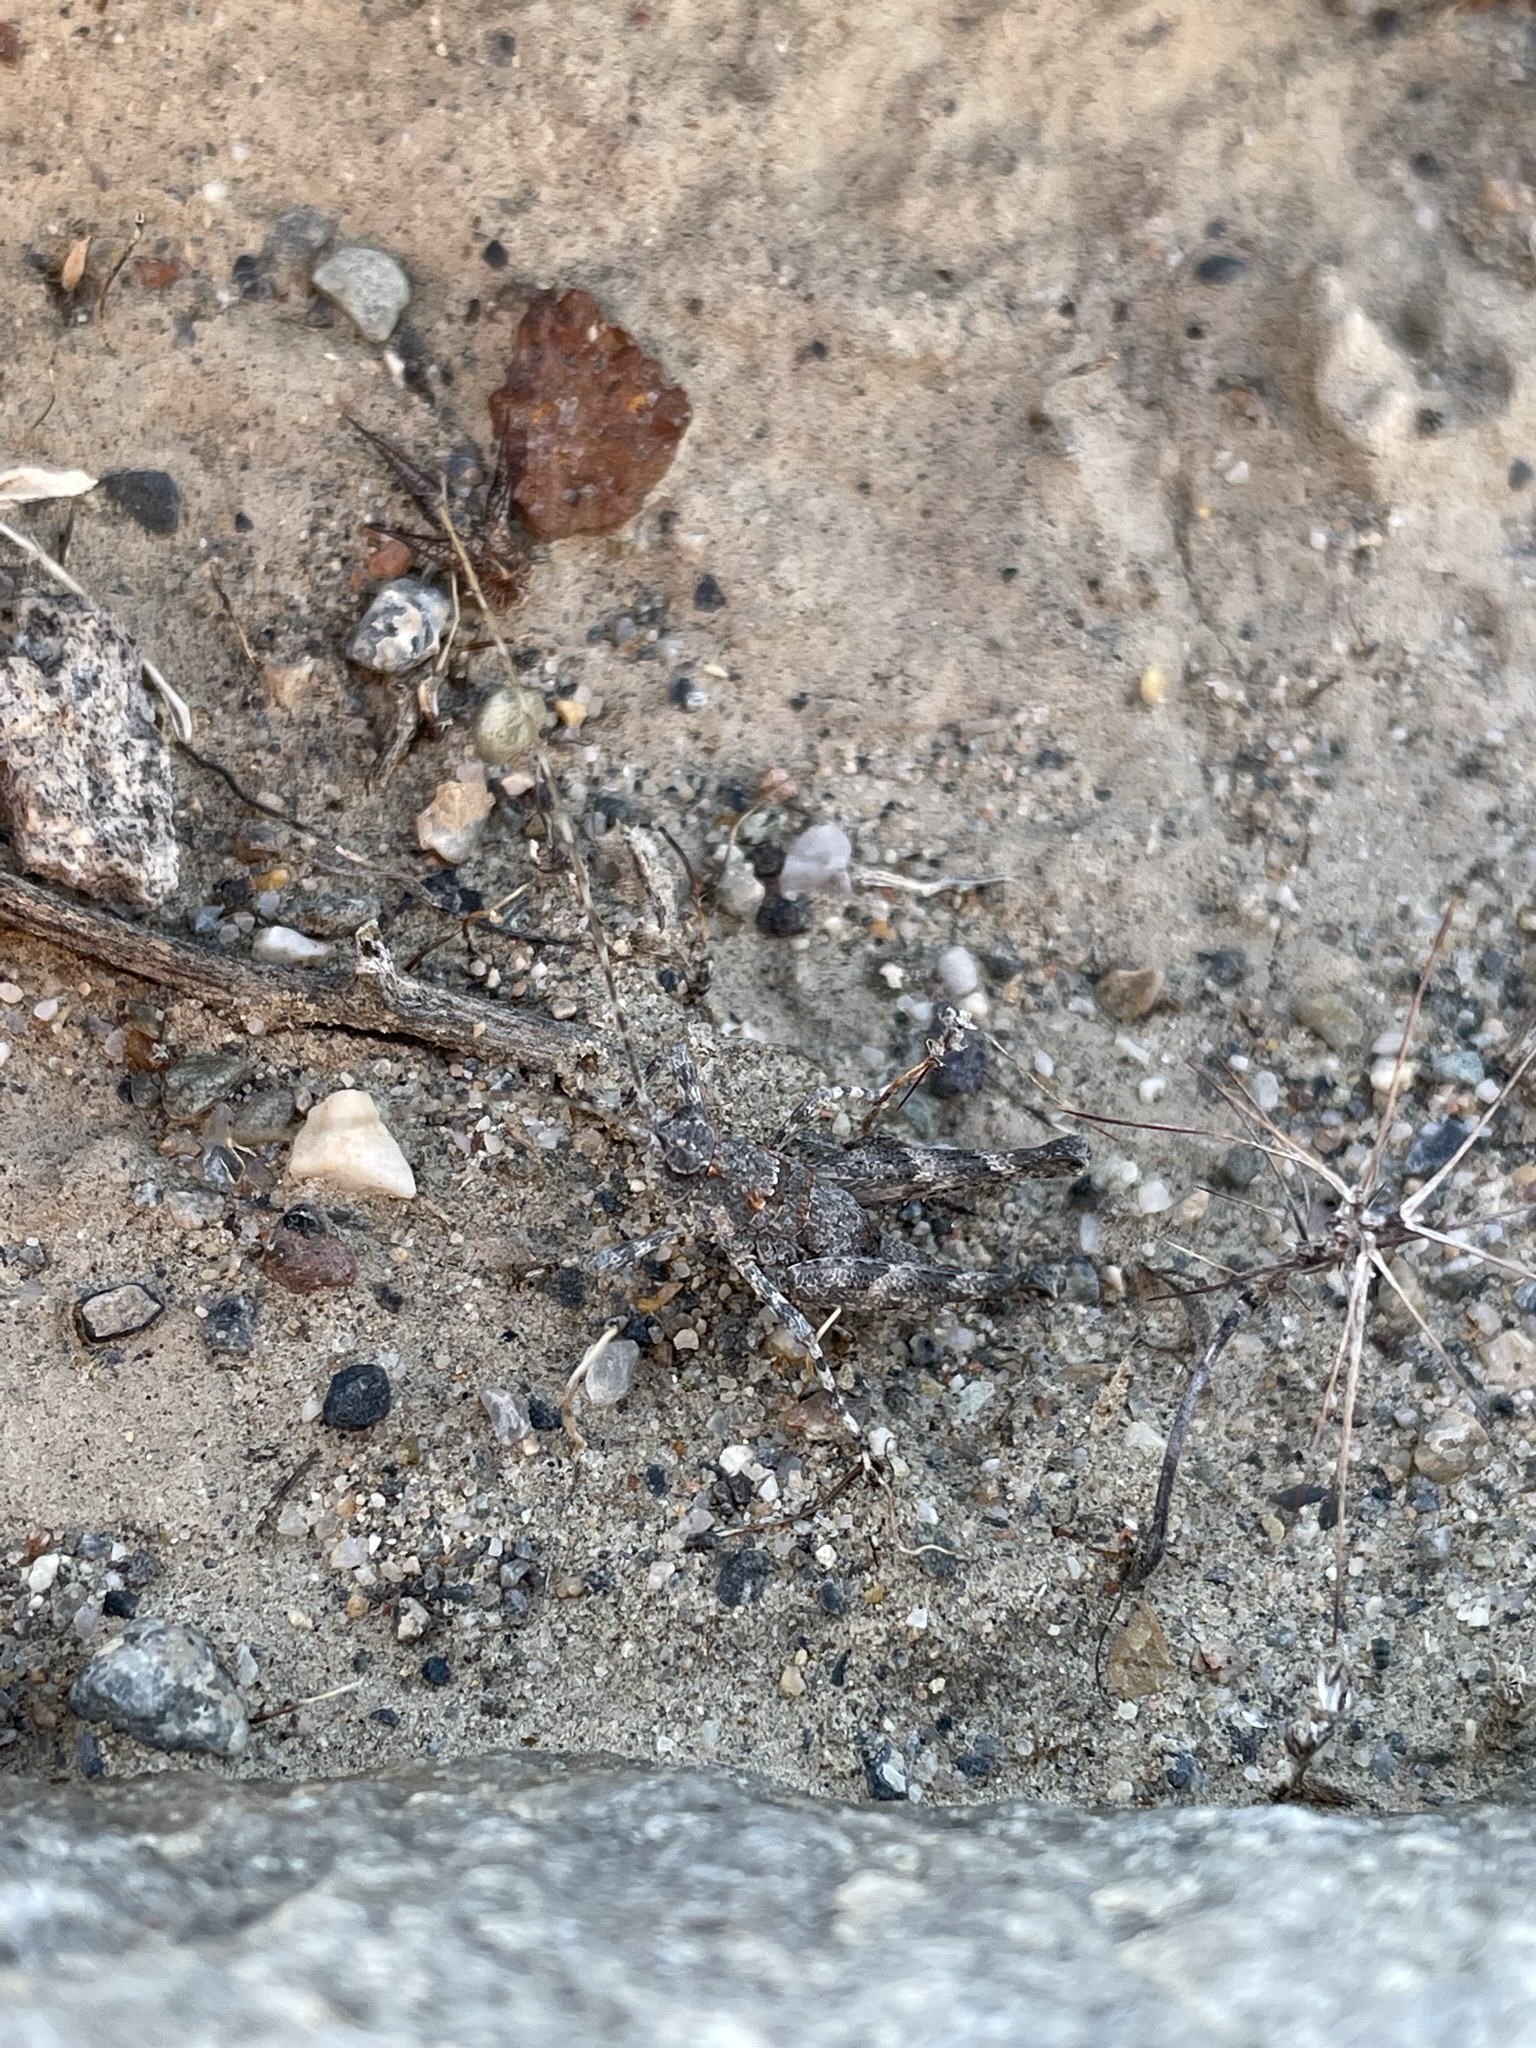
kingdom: Animalia
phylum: Arthropoda
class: Insecta
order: Orthoptera
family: Tanaoceridae
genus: Tanaocerus
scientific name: Tanaocerus koebelei
